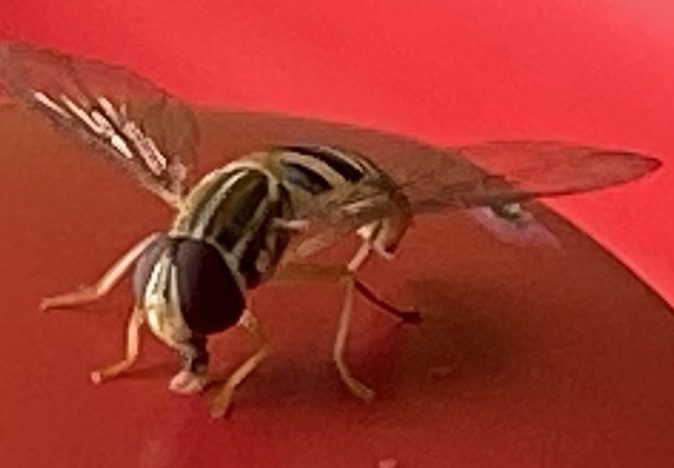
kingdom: Animalia
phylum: Arthropoda
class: Insecta
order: Diptera
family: Syrphidae
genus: Toxomerus
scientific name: Toxomerus politus
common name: Maize calligrapher
